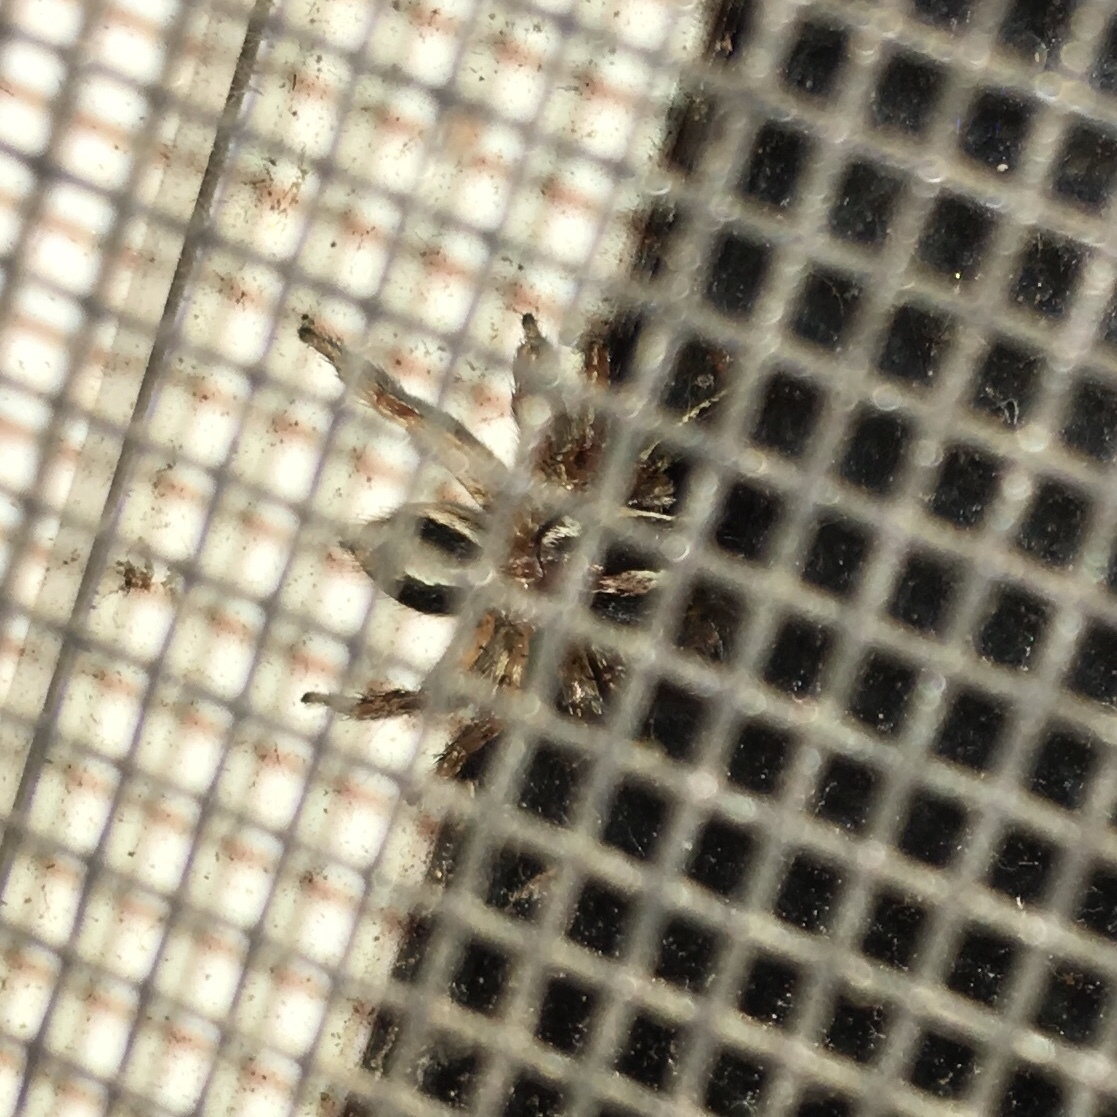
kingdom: Animalia
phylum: Arthropoda
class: Arachnida
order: Araneae
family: Salticidae
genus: Plexippus
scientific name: Plexippus paykulli
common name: Pantropical jumper
